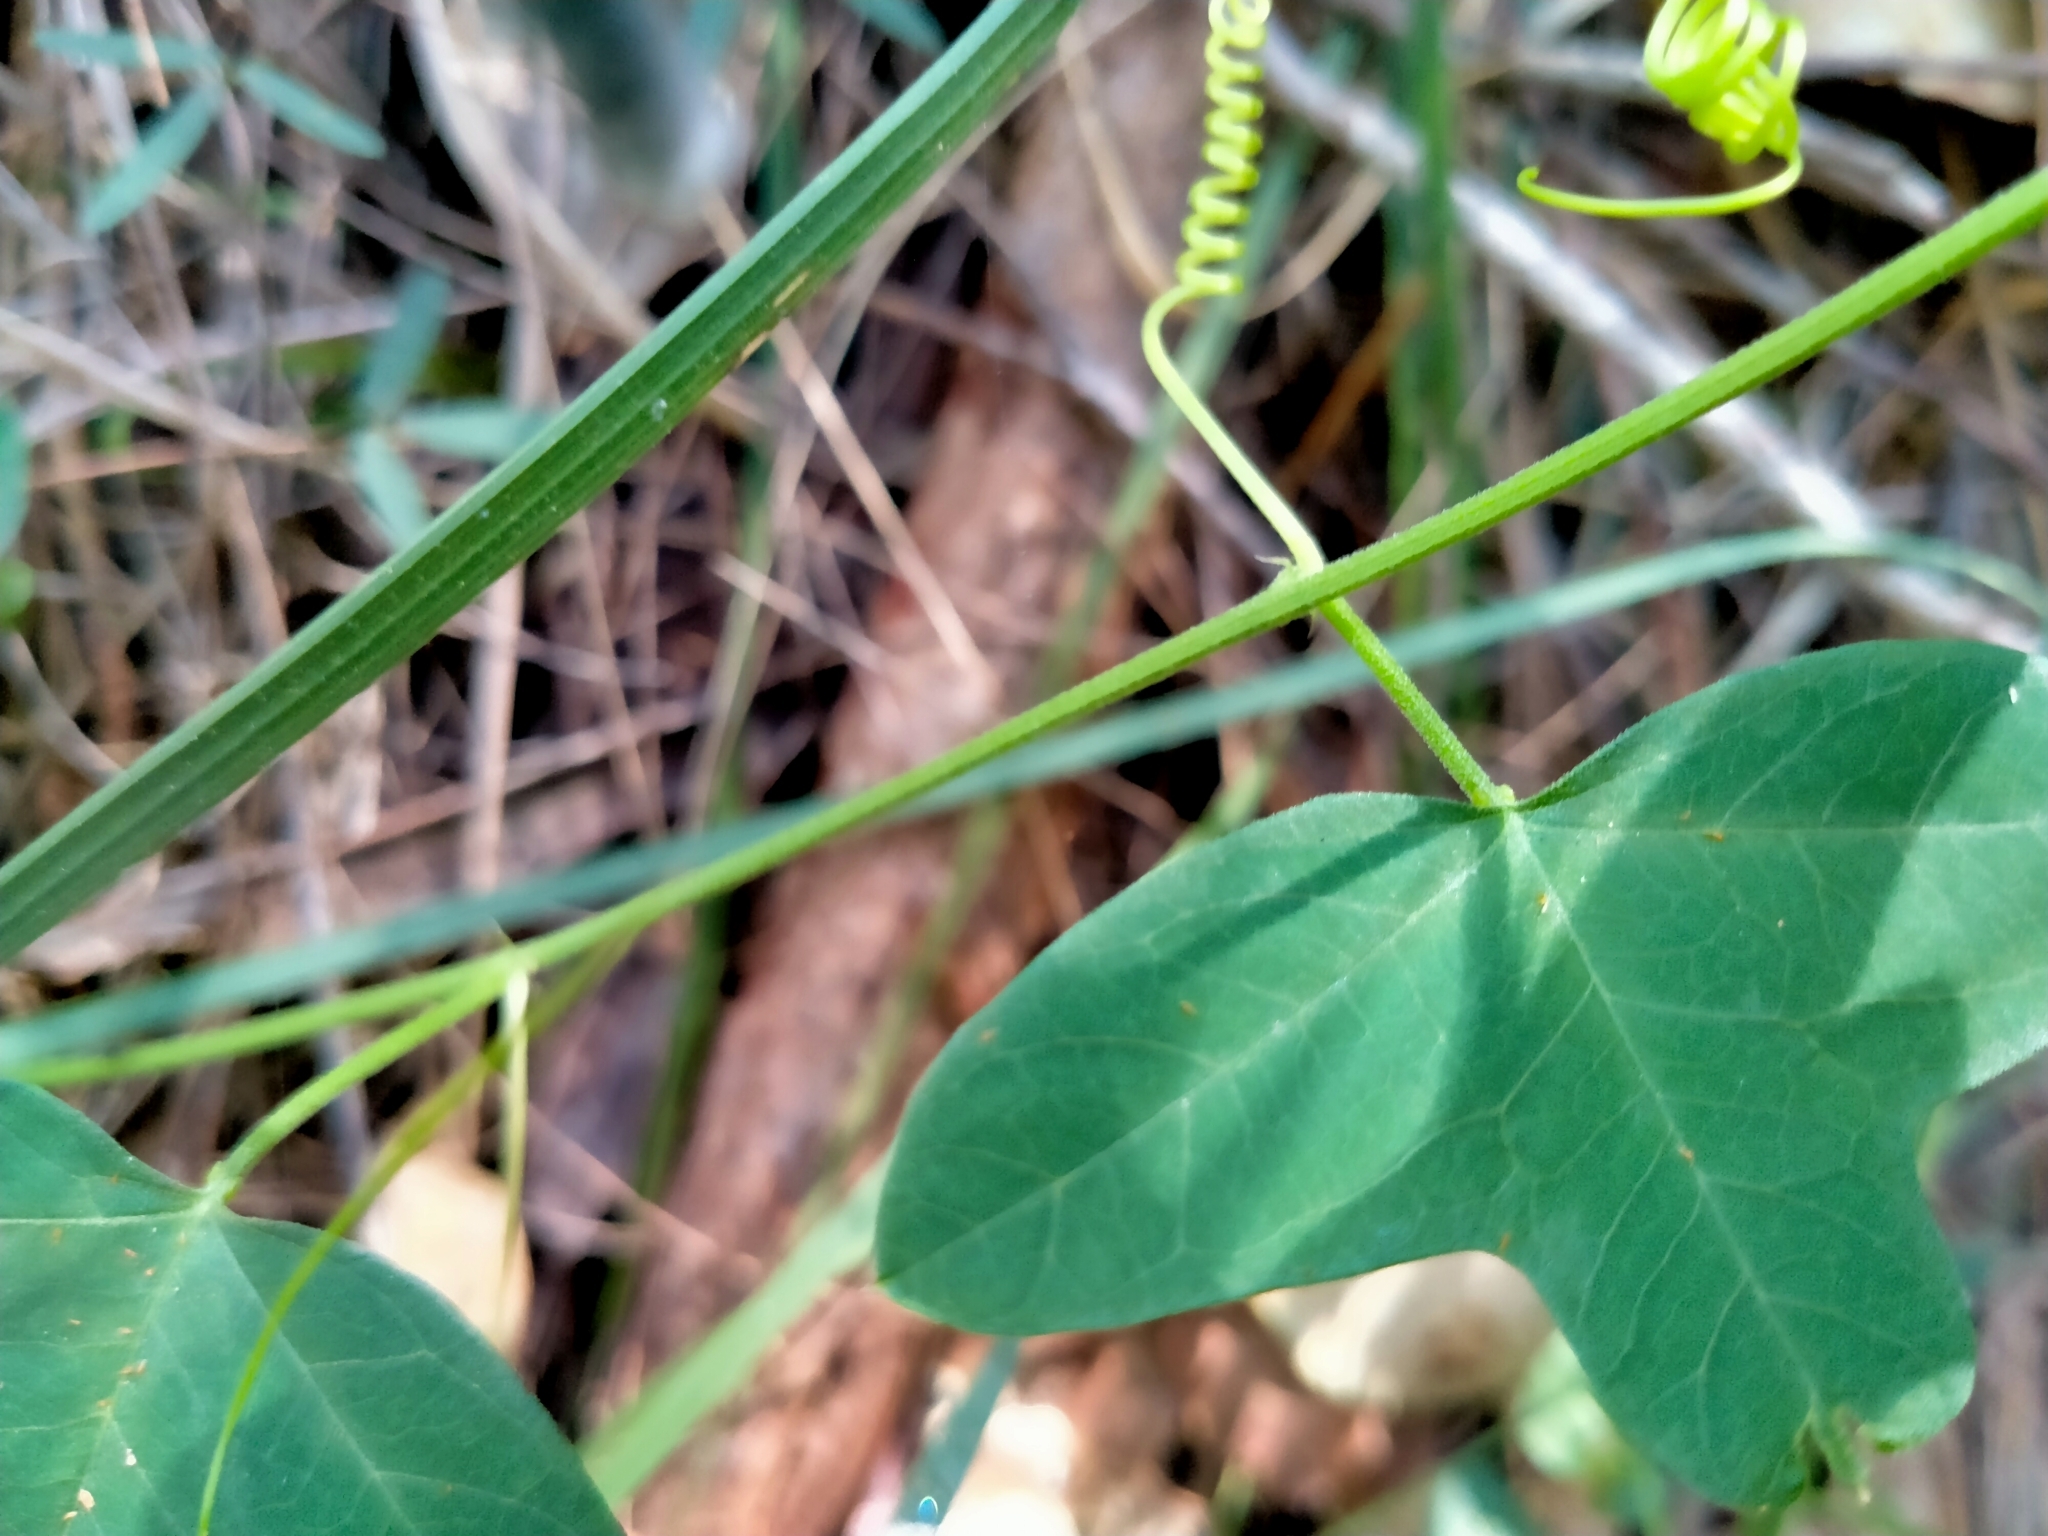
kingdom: Plantae
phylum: Tracheophyta
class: Magnoliopsida
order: Malpighiales
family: Passifloraceae
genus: Passiflora
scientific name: Passiflora herbertiana
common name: Yellow passionflower
